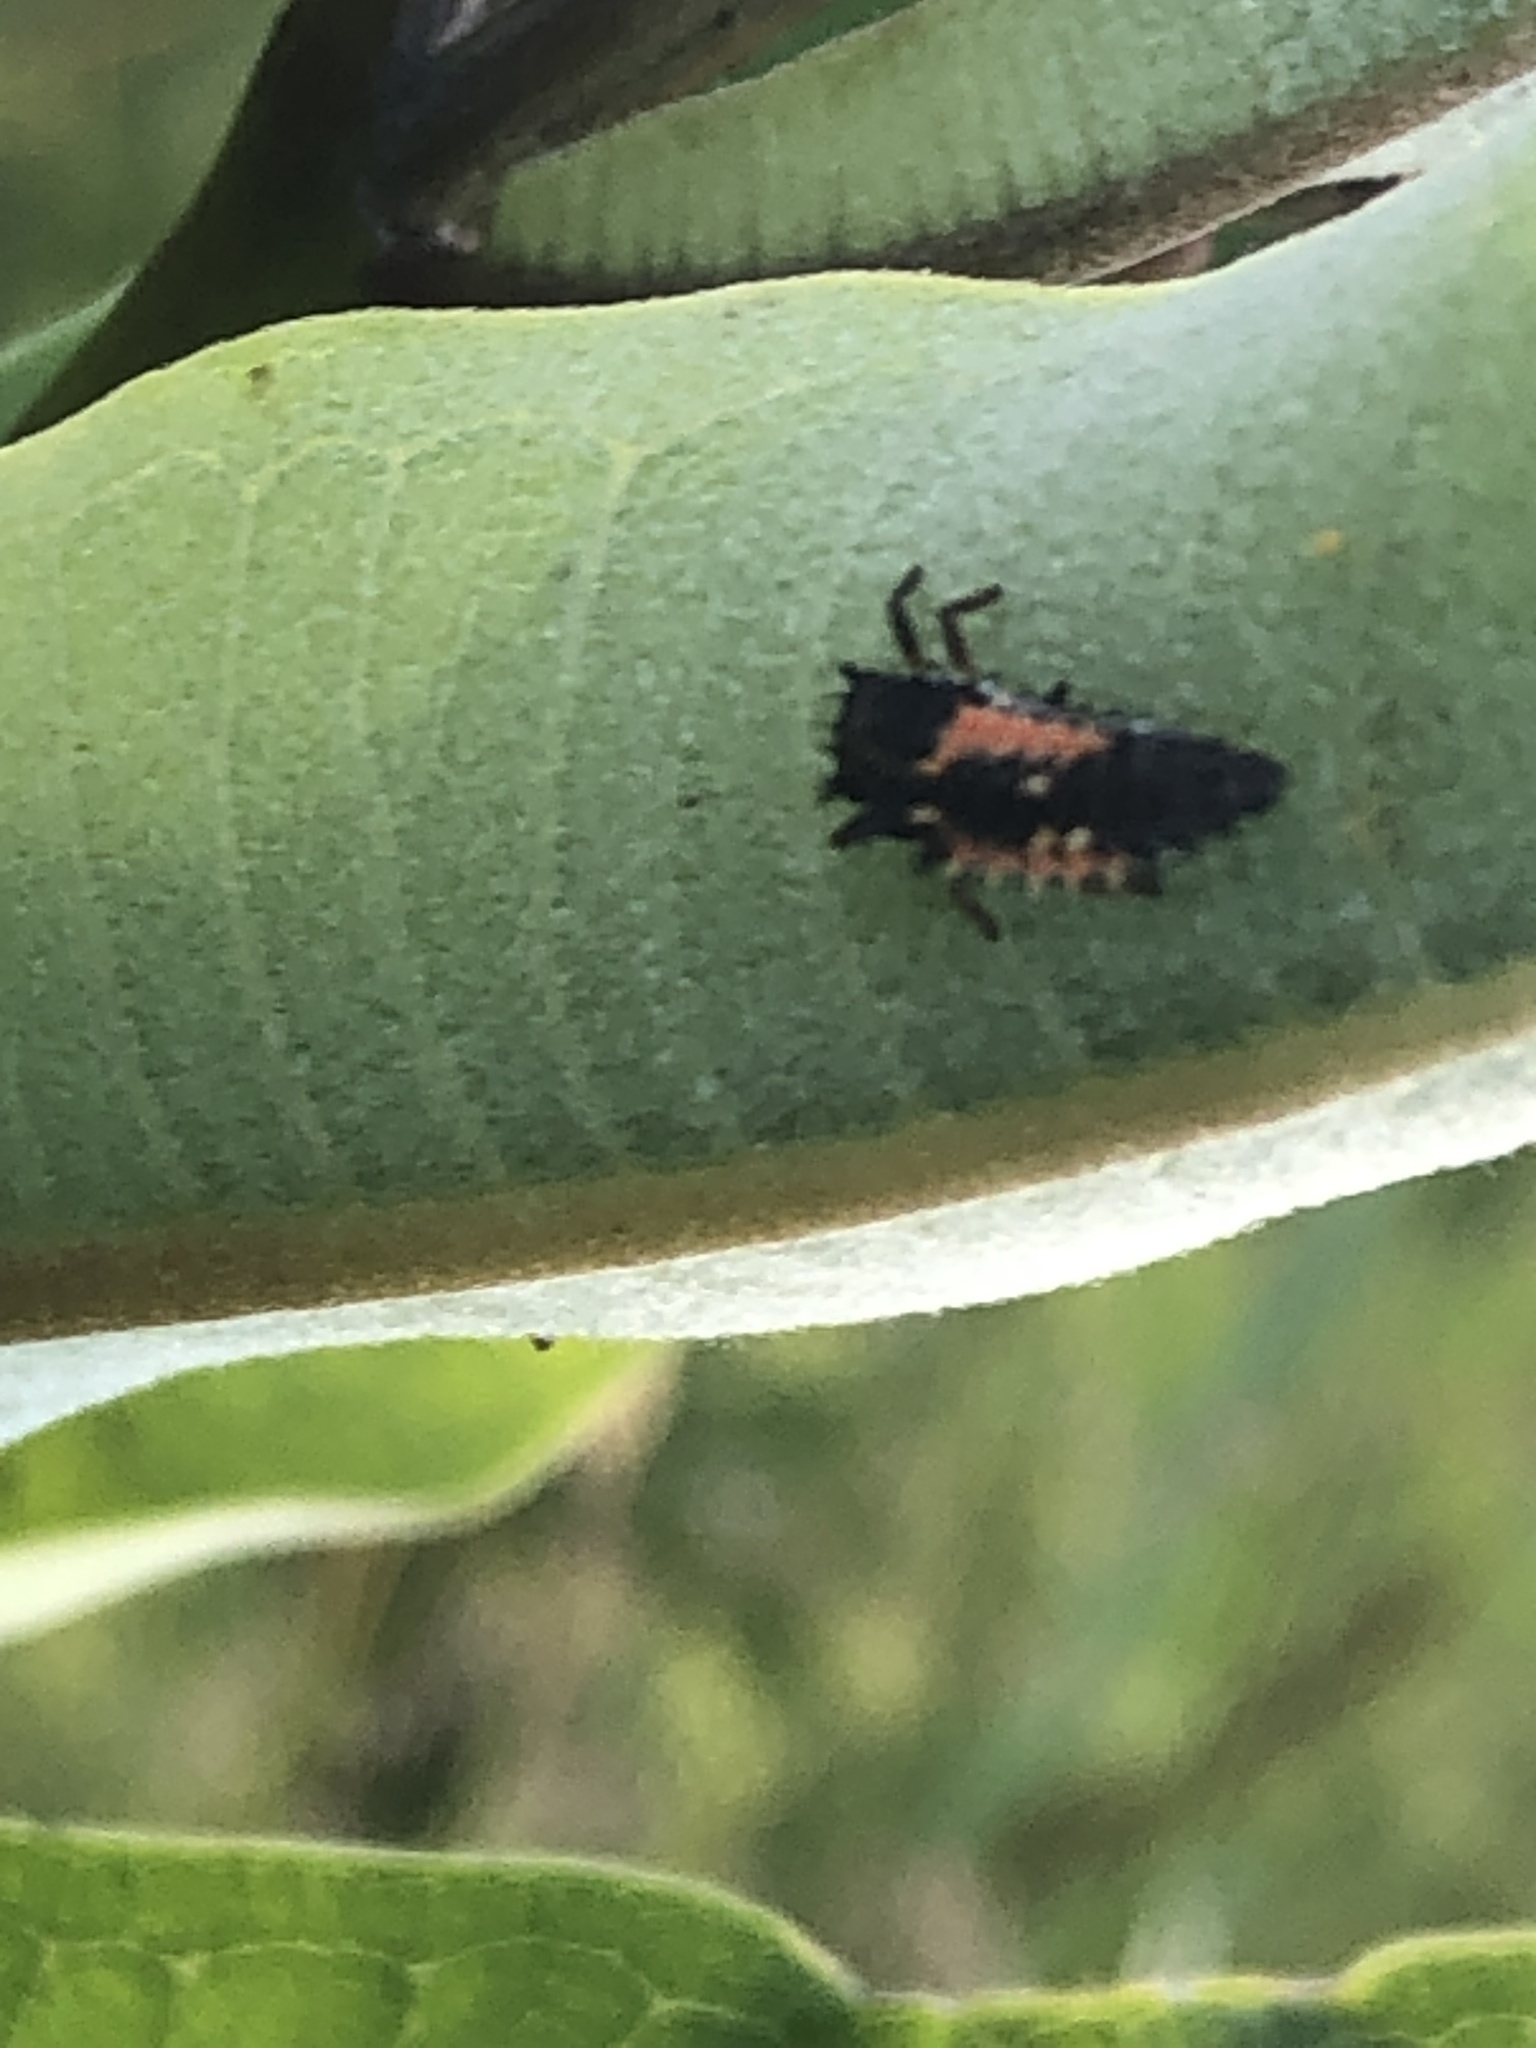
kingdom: Animalia
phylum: Arthropoda
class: Insecta
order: Coleoptera
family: Coccinellidae
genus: Harmonia
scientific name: Harmonia axyridis
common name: Harlequin ladybird
